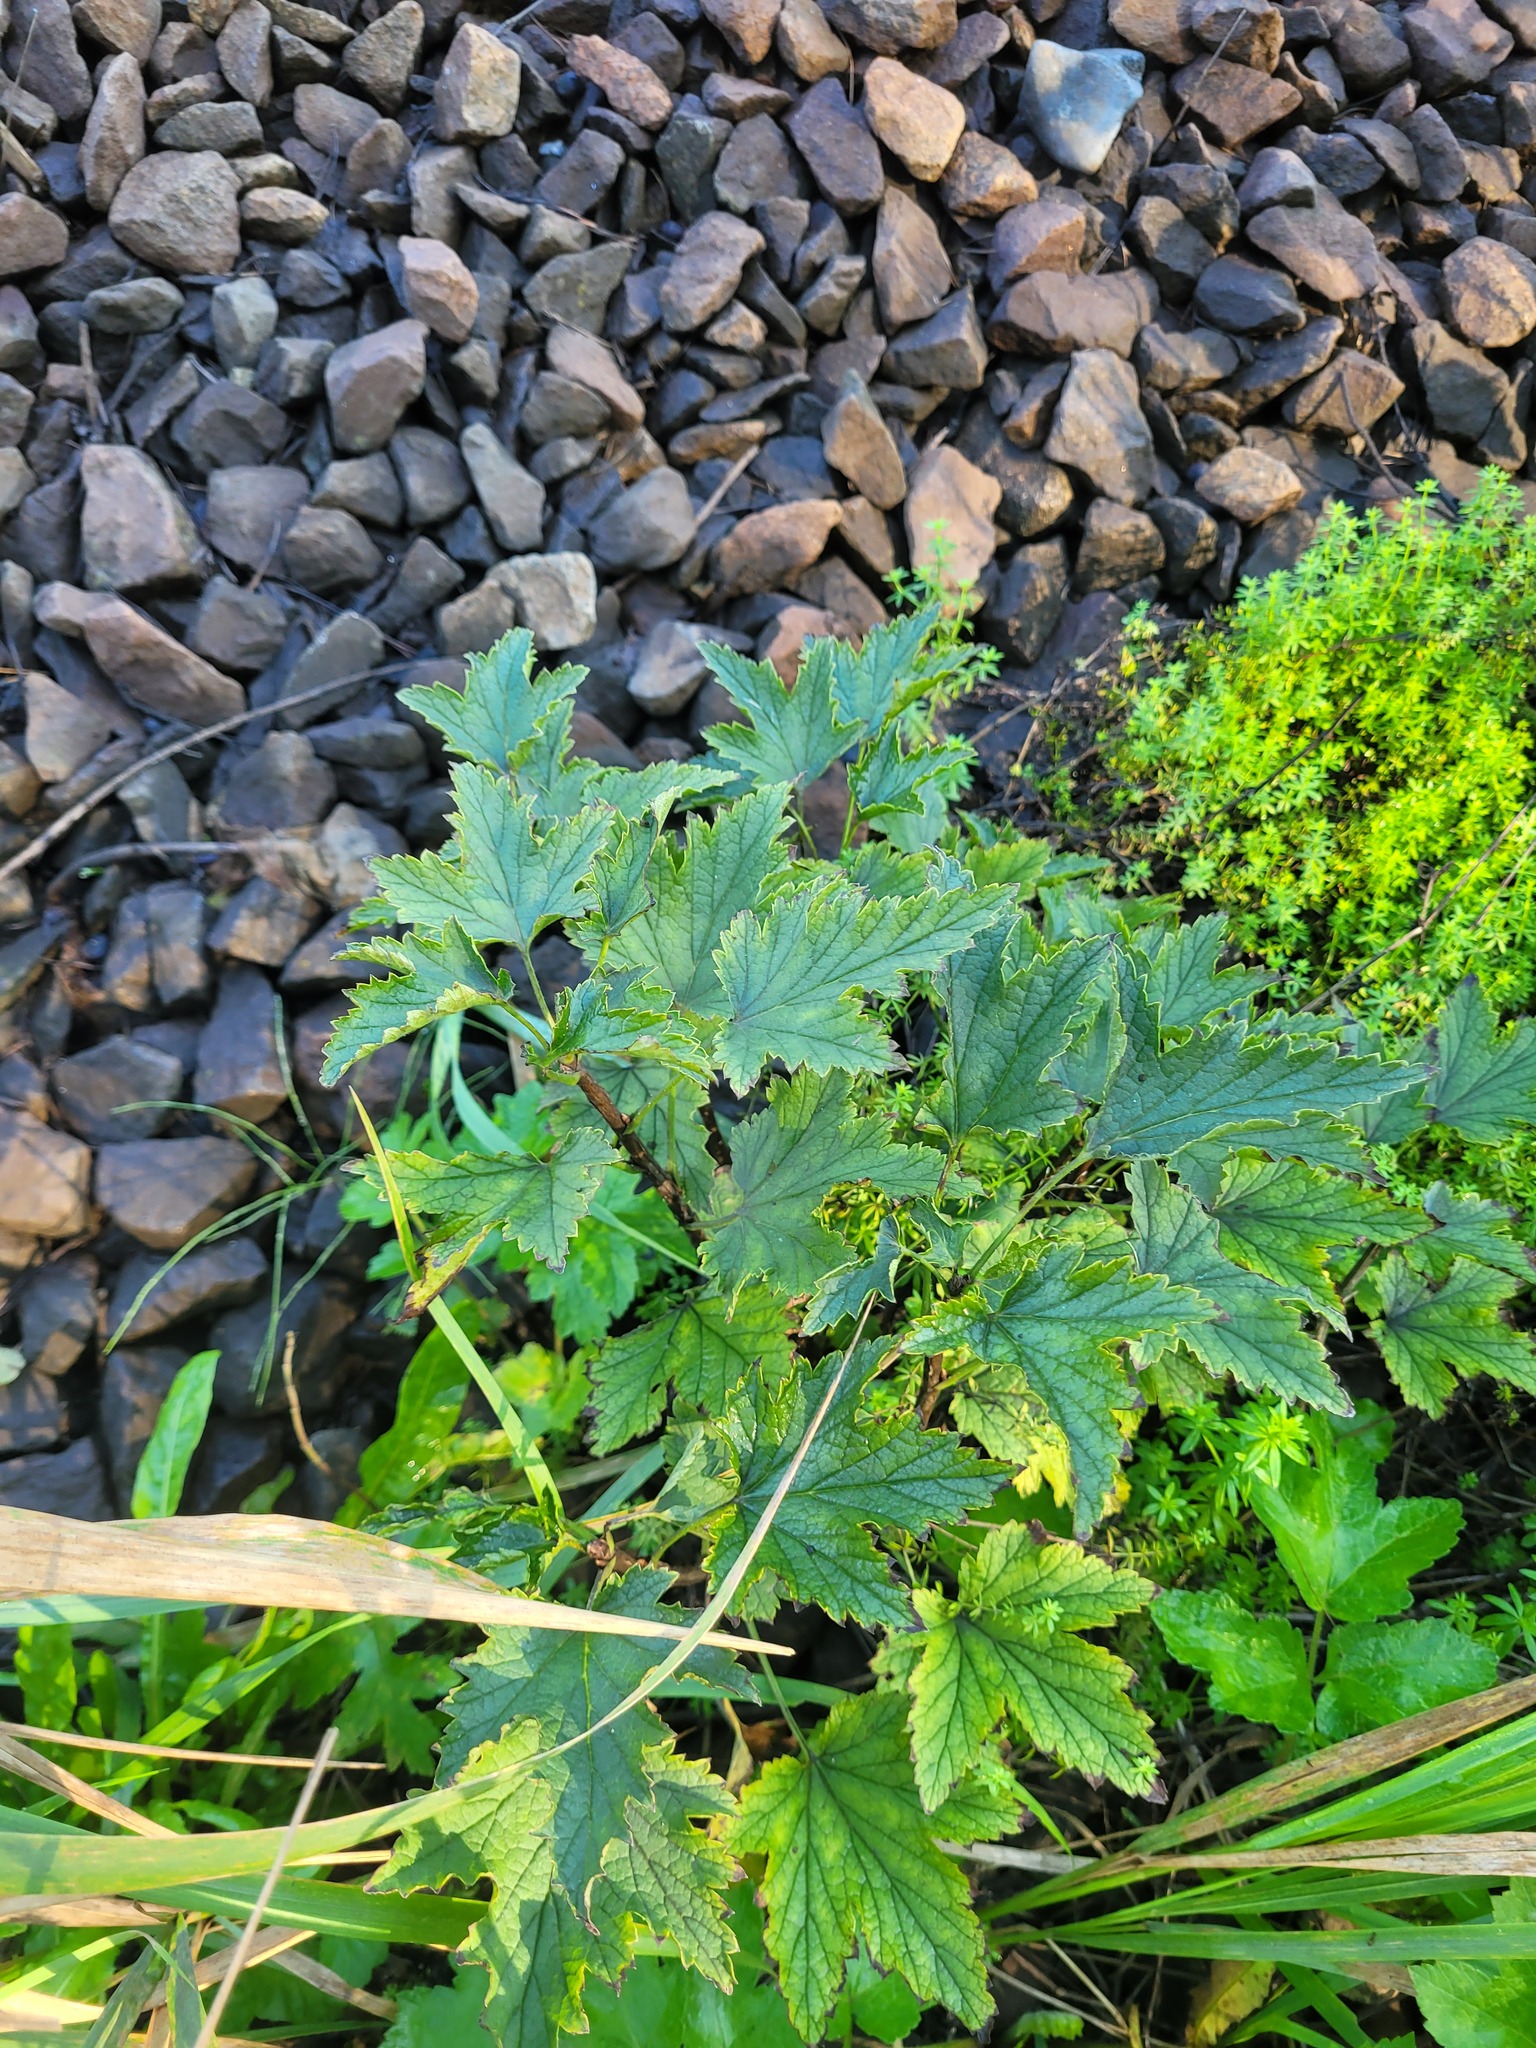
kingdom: Plantae
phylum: Tracheophyta
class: Magnoliopsida
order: Saxifragales
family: Grossulariaceae
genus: Ribes
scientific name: Ribes spicatum
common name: Downy currant
